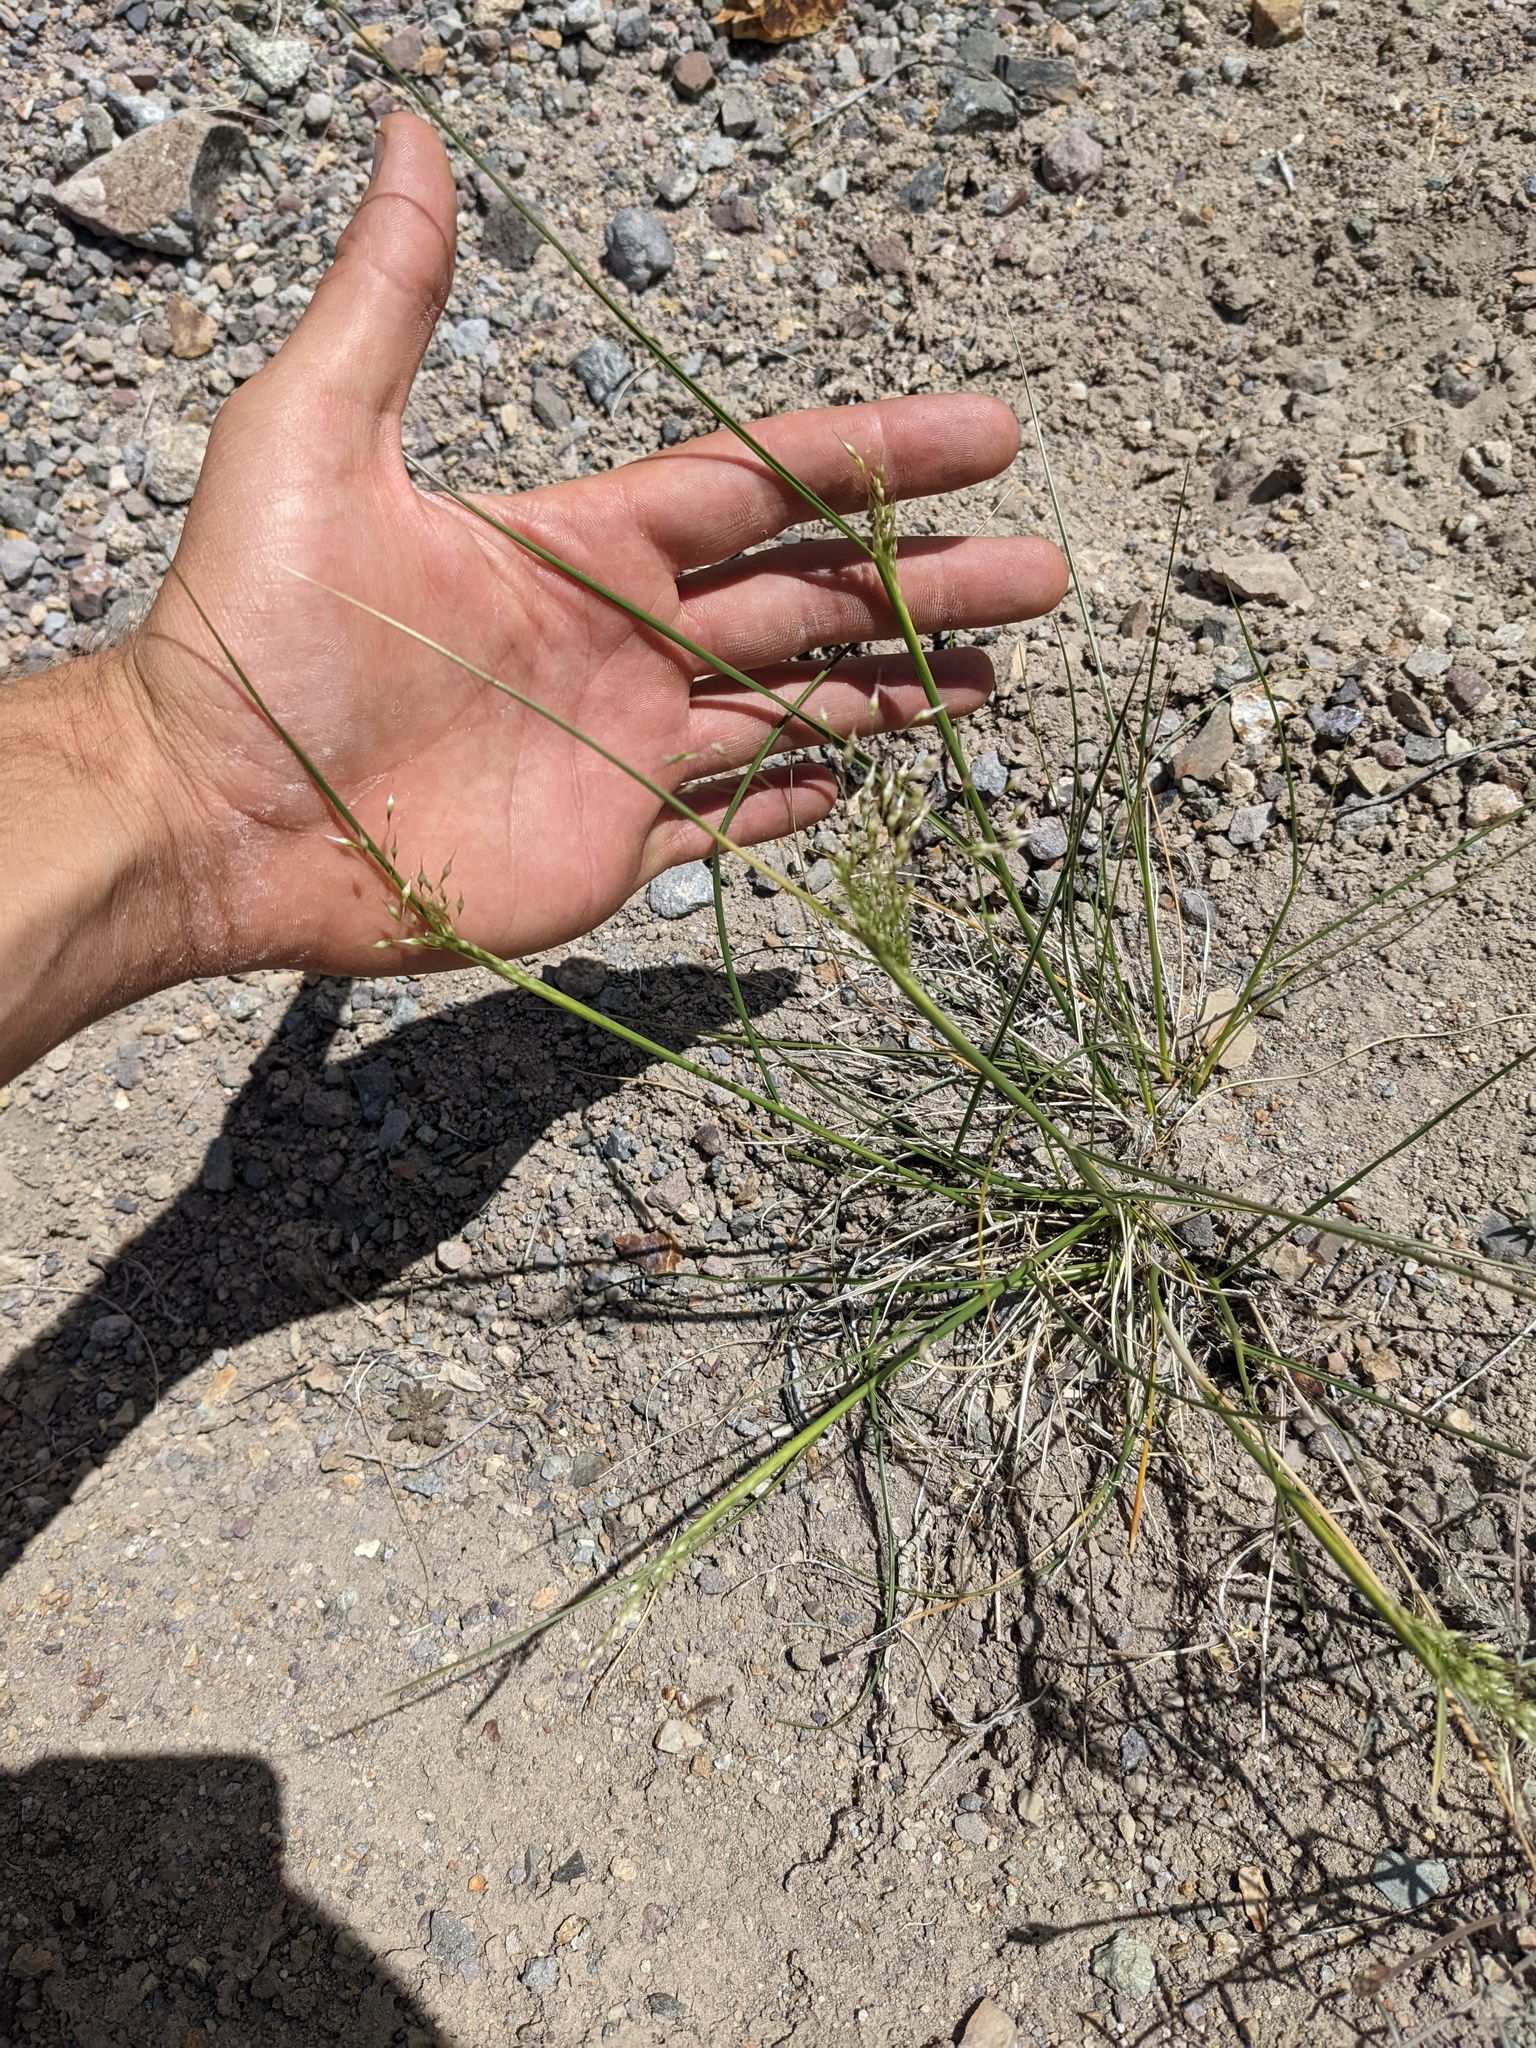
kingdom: Plantae
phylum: Tracheophyta
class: Liliopsida
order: Poales
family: Poaceae
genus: Eriocoma
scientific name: Eriocoma hymenoides
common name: Indian mountain ricegrass
